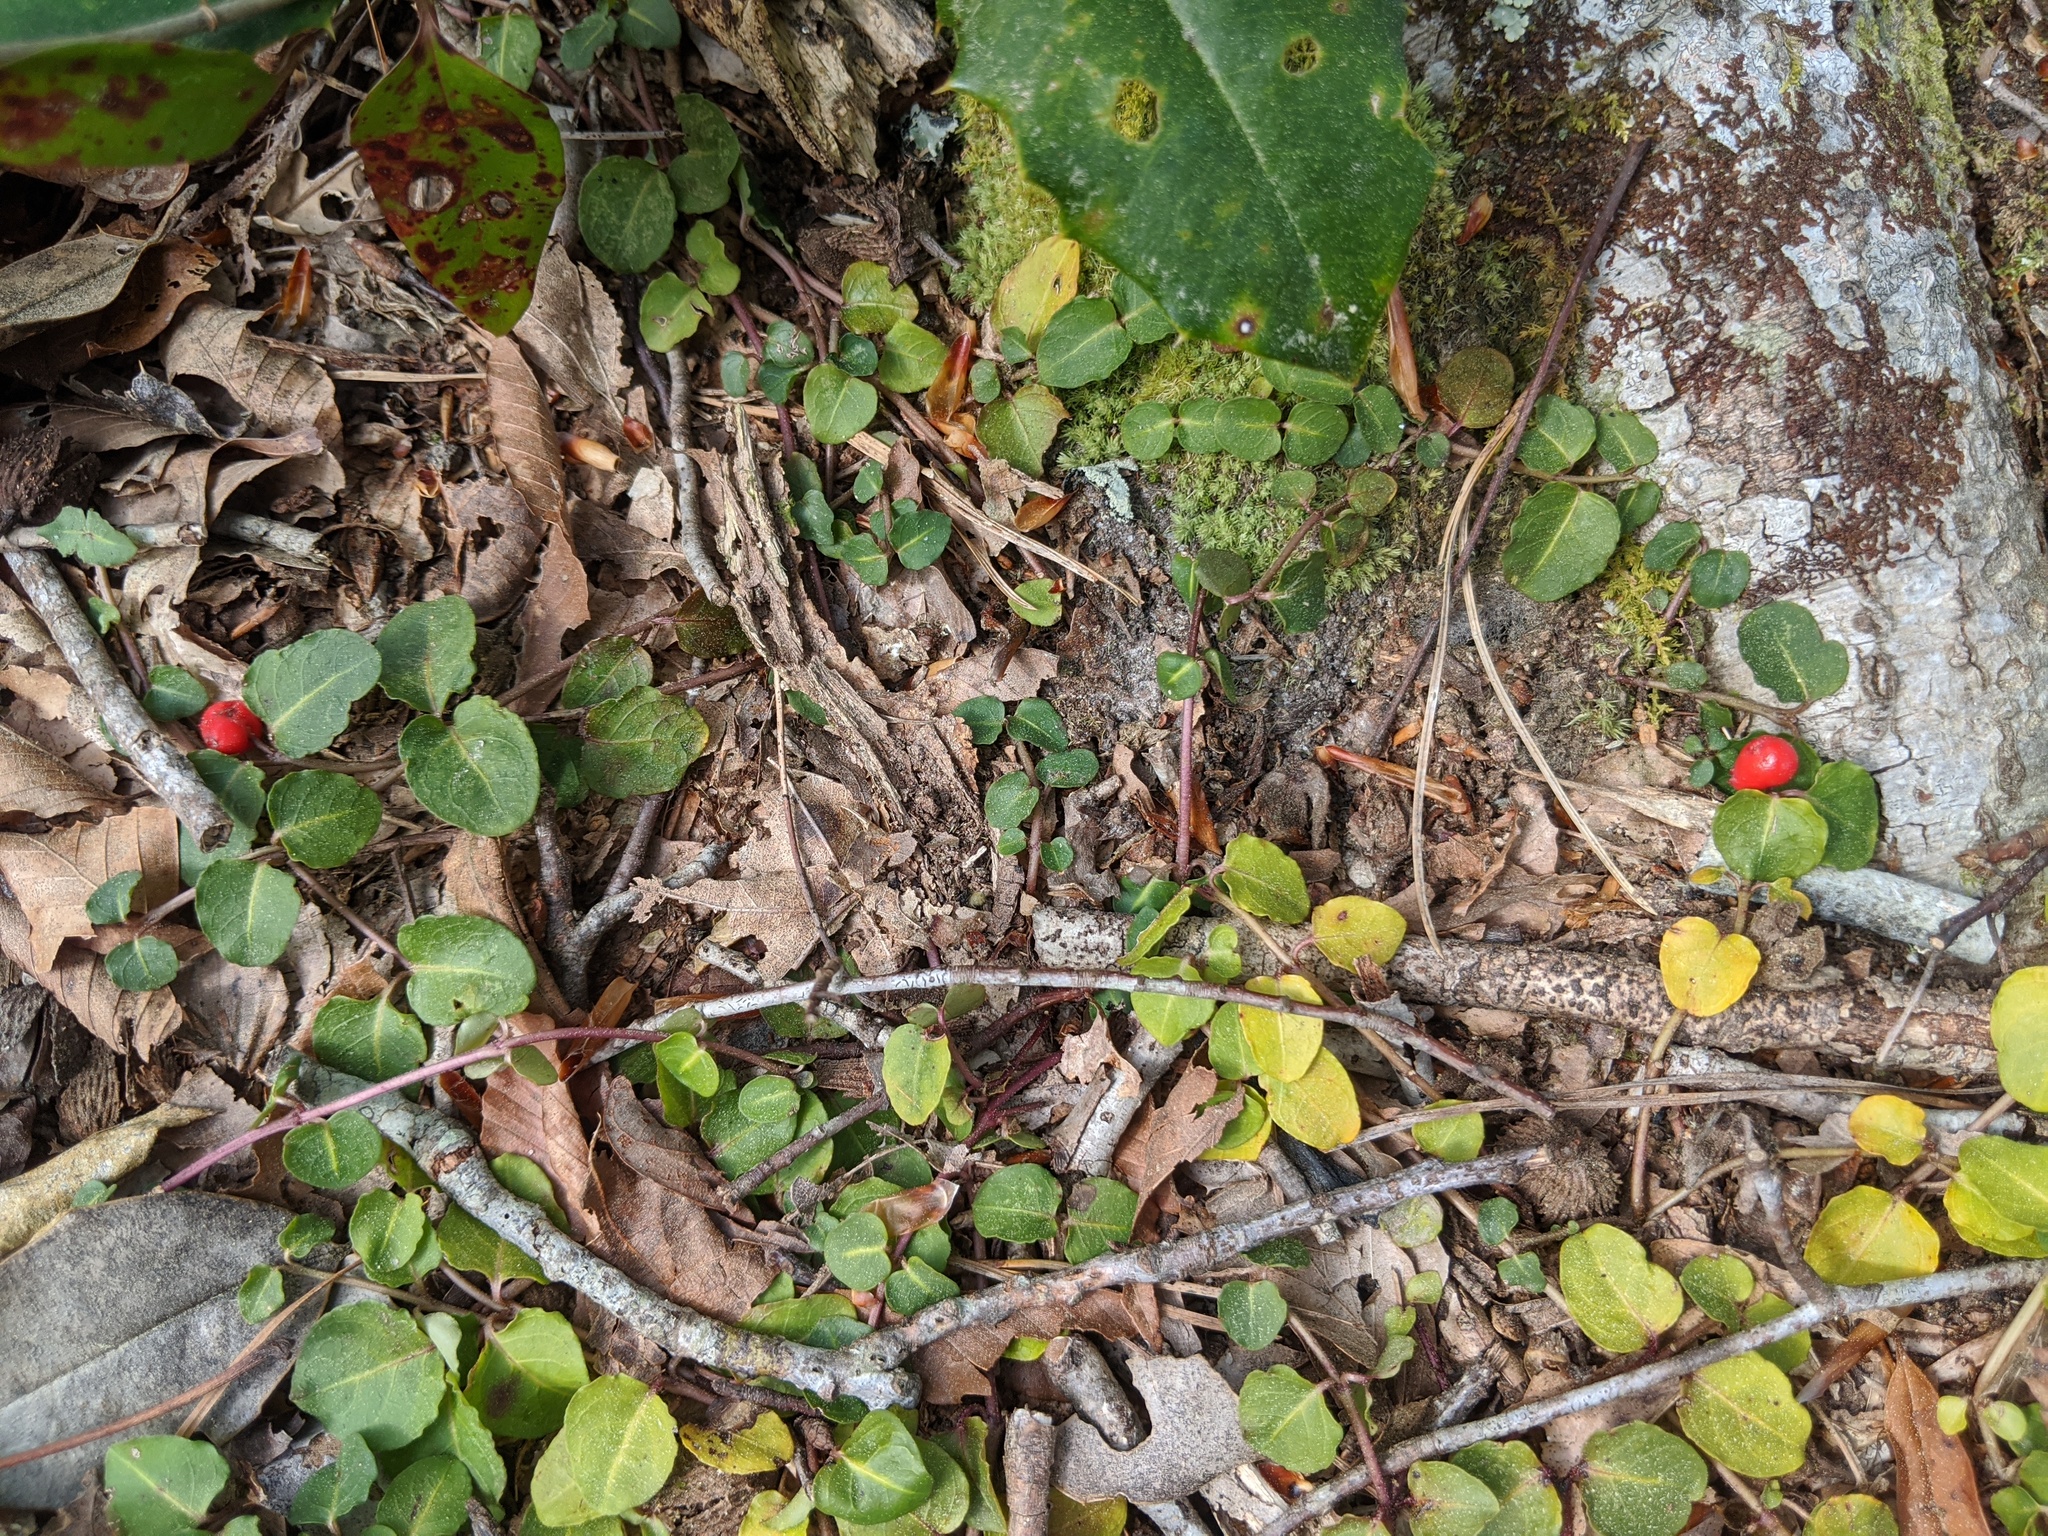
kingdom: Plantae
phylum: Tracheophyta
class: Magnoliopsida
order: Gentianales
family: Rubiaceae
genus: Mitchella
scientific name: Mitchella repens
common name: Partridge-berry
